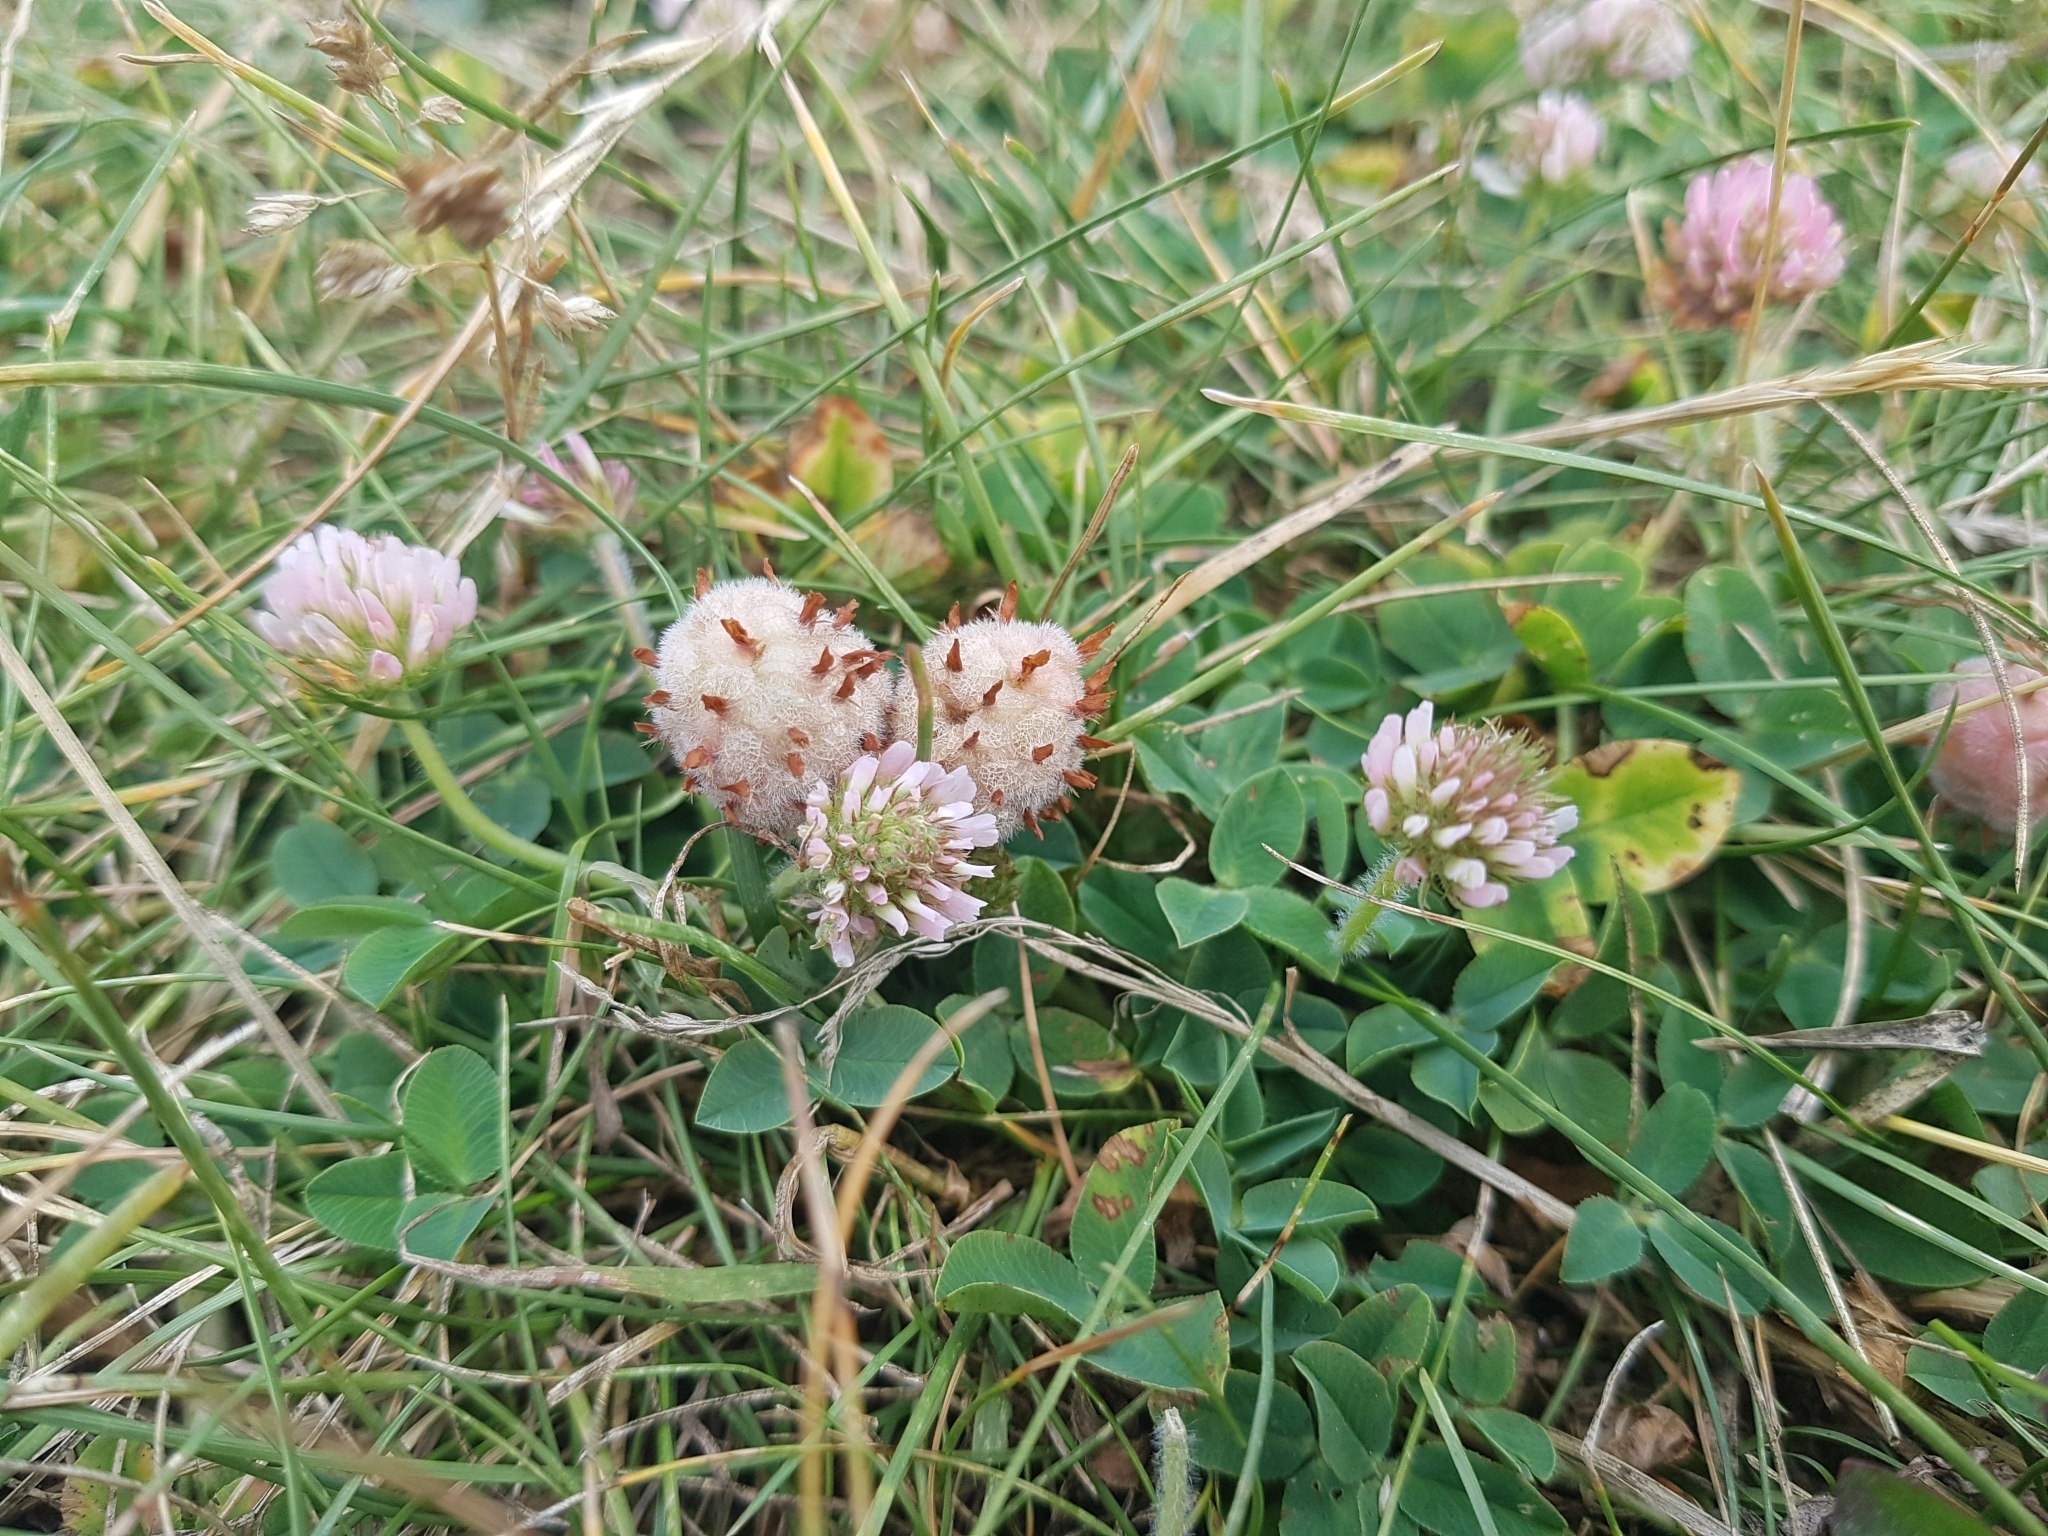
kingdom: Plantae
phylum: Tracheophyta
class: Magnoliopsida
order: Fabales
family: Fabaceae
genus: Trifolium
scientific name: Trifolium fragiferum
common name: Strawberry clover
